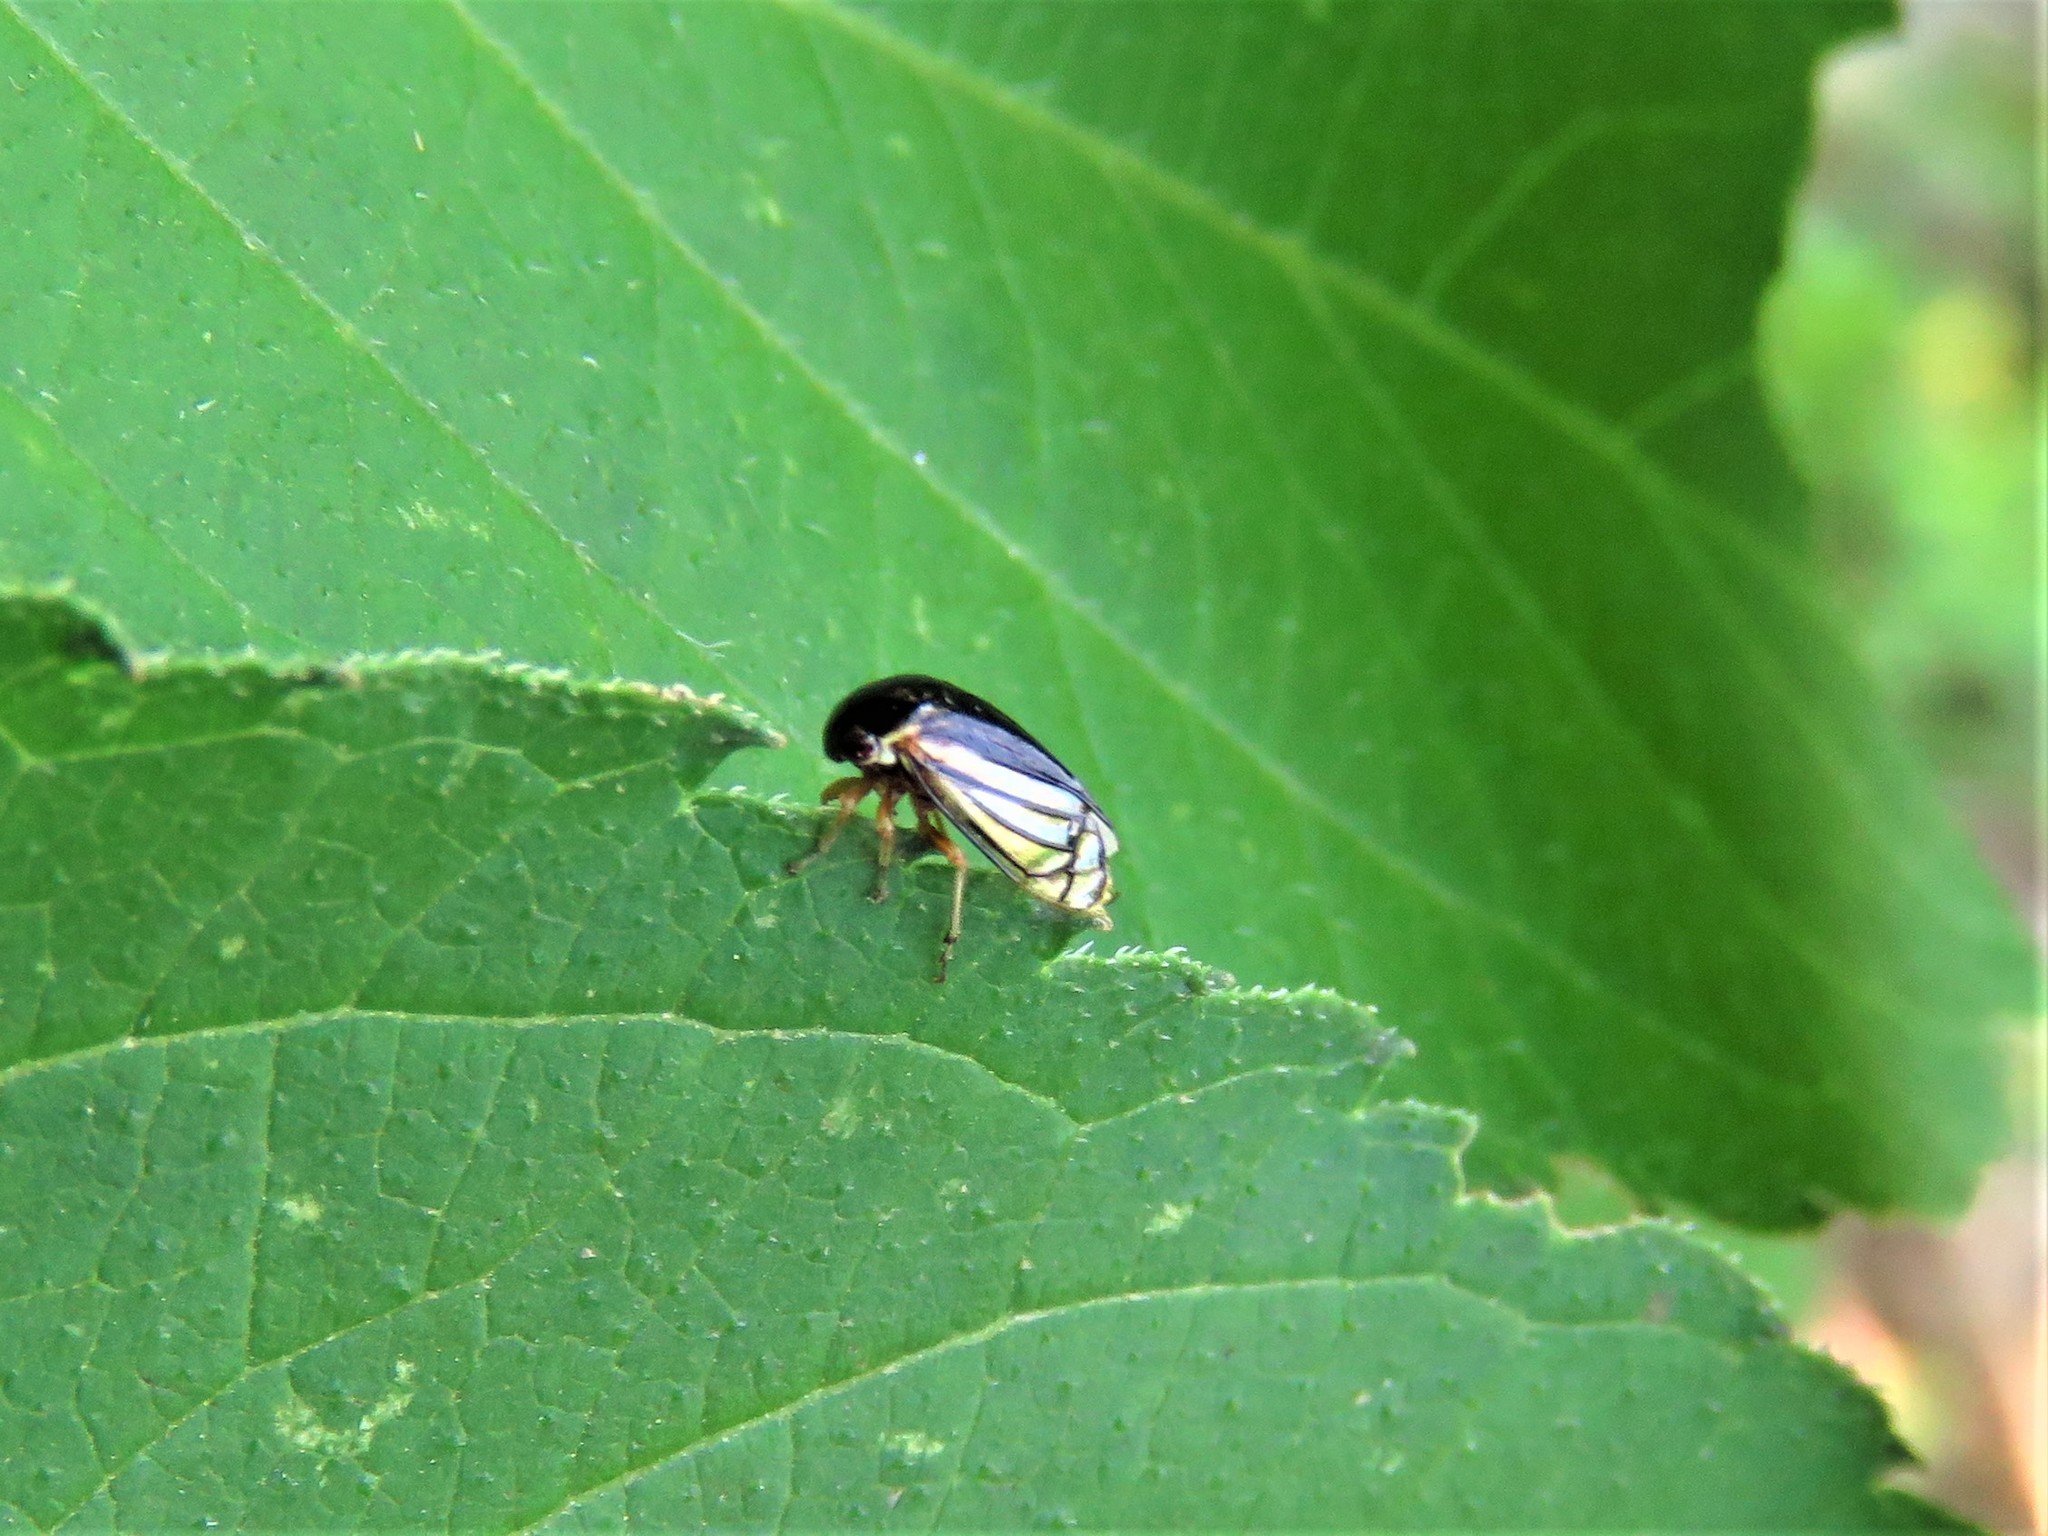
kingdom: Animalia
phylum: Arthropoda
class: Insecta
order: Hemiptera
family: Membracidae
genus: Acutalis
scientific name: Acutalis tartarea
